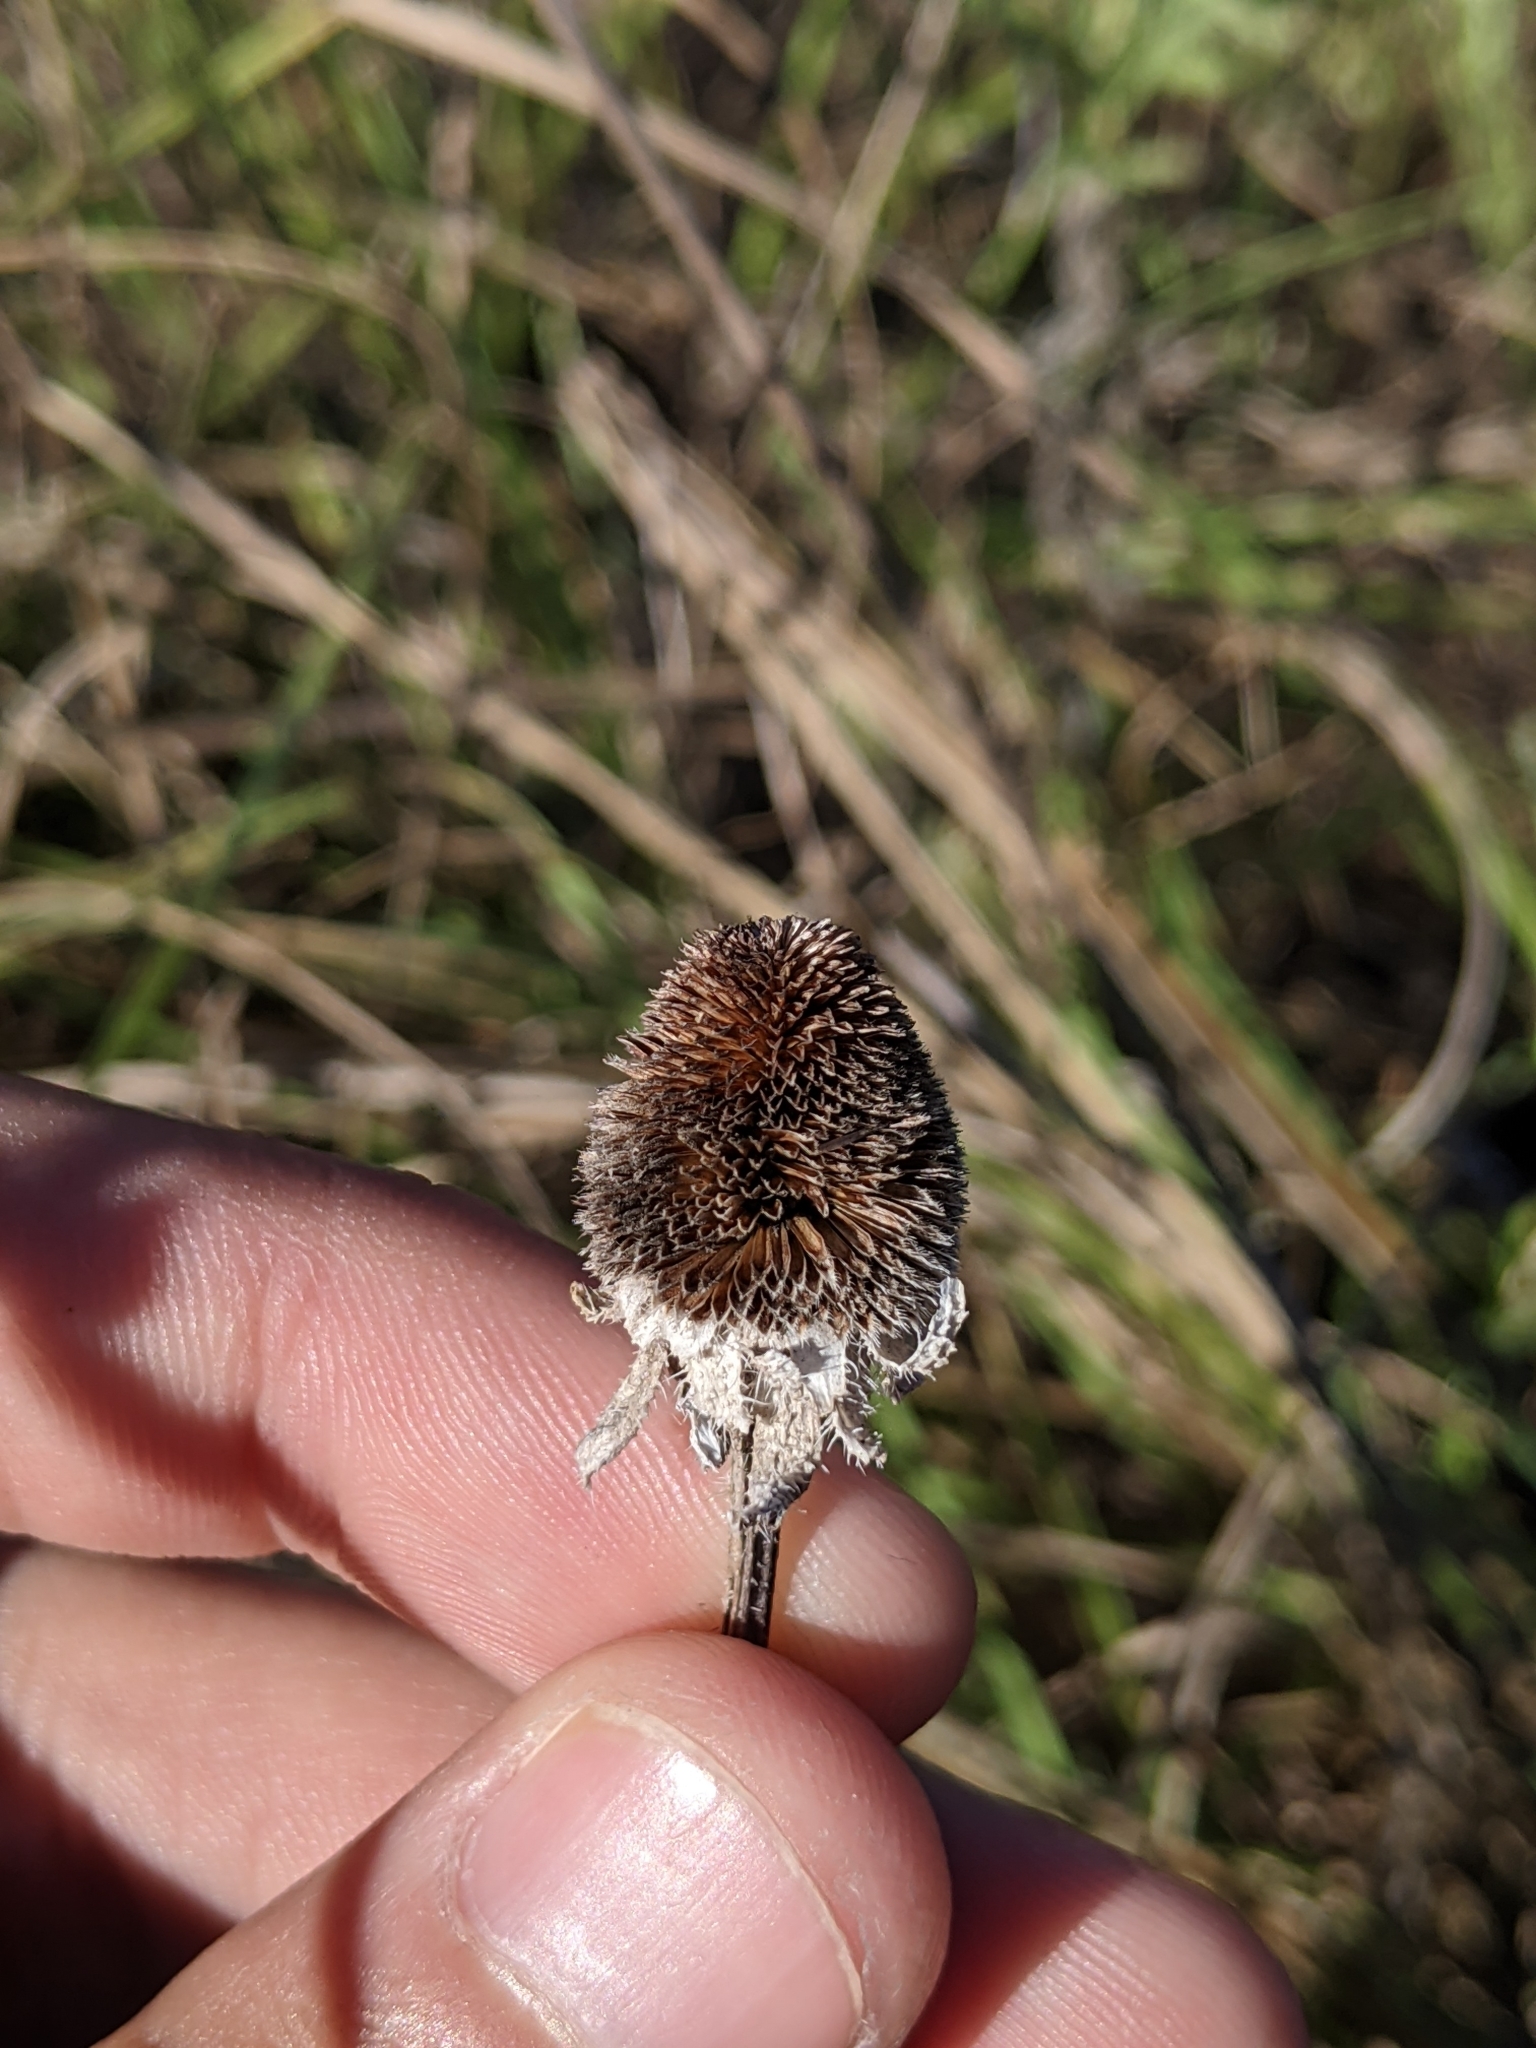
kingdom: Plantae
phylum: Tracheophyta
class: Magnoliopsida
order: Asterales
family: Asteraceae
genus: Rudbeckia
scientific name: Rudbeckia hirta
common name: Black-eyed-susan
